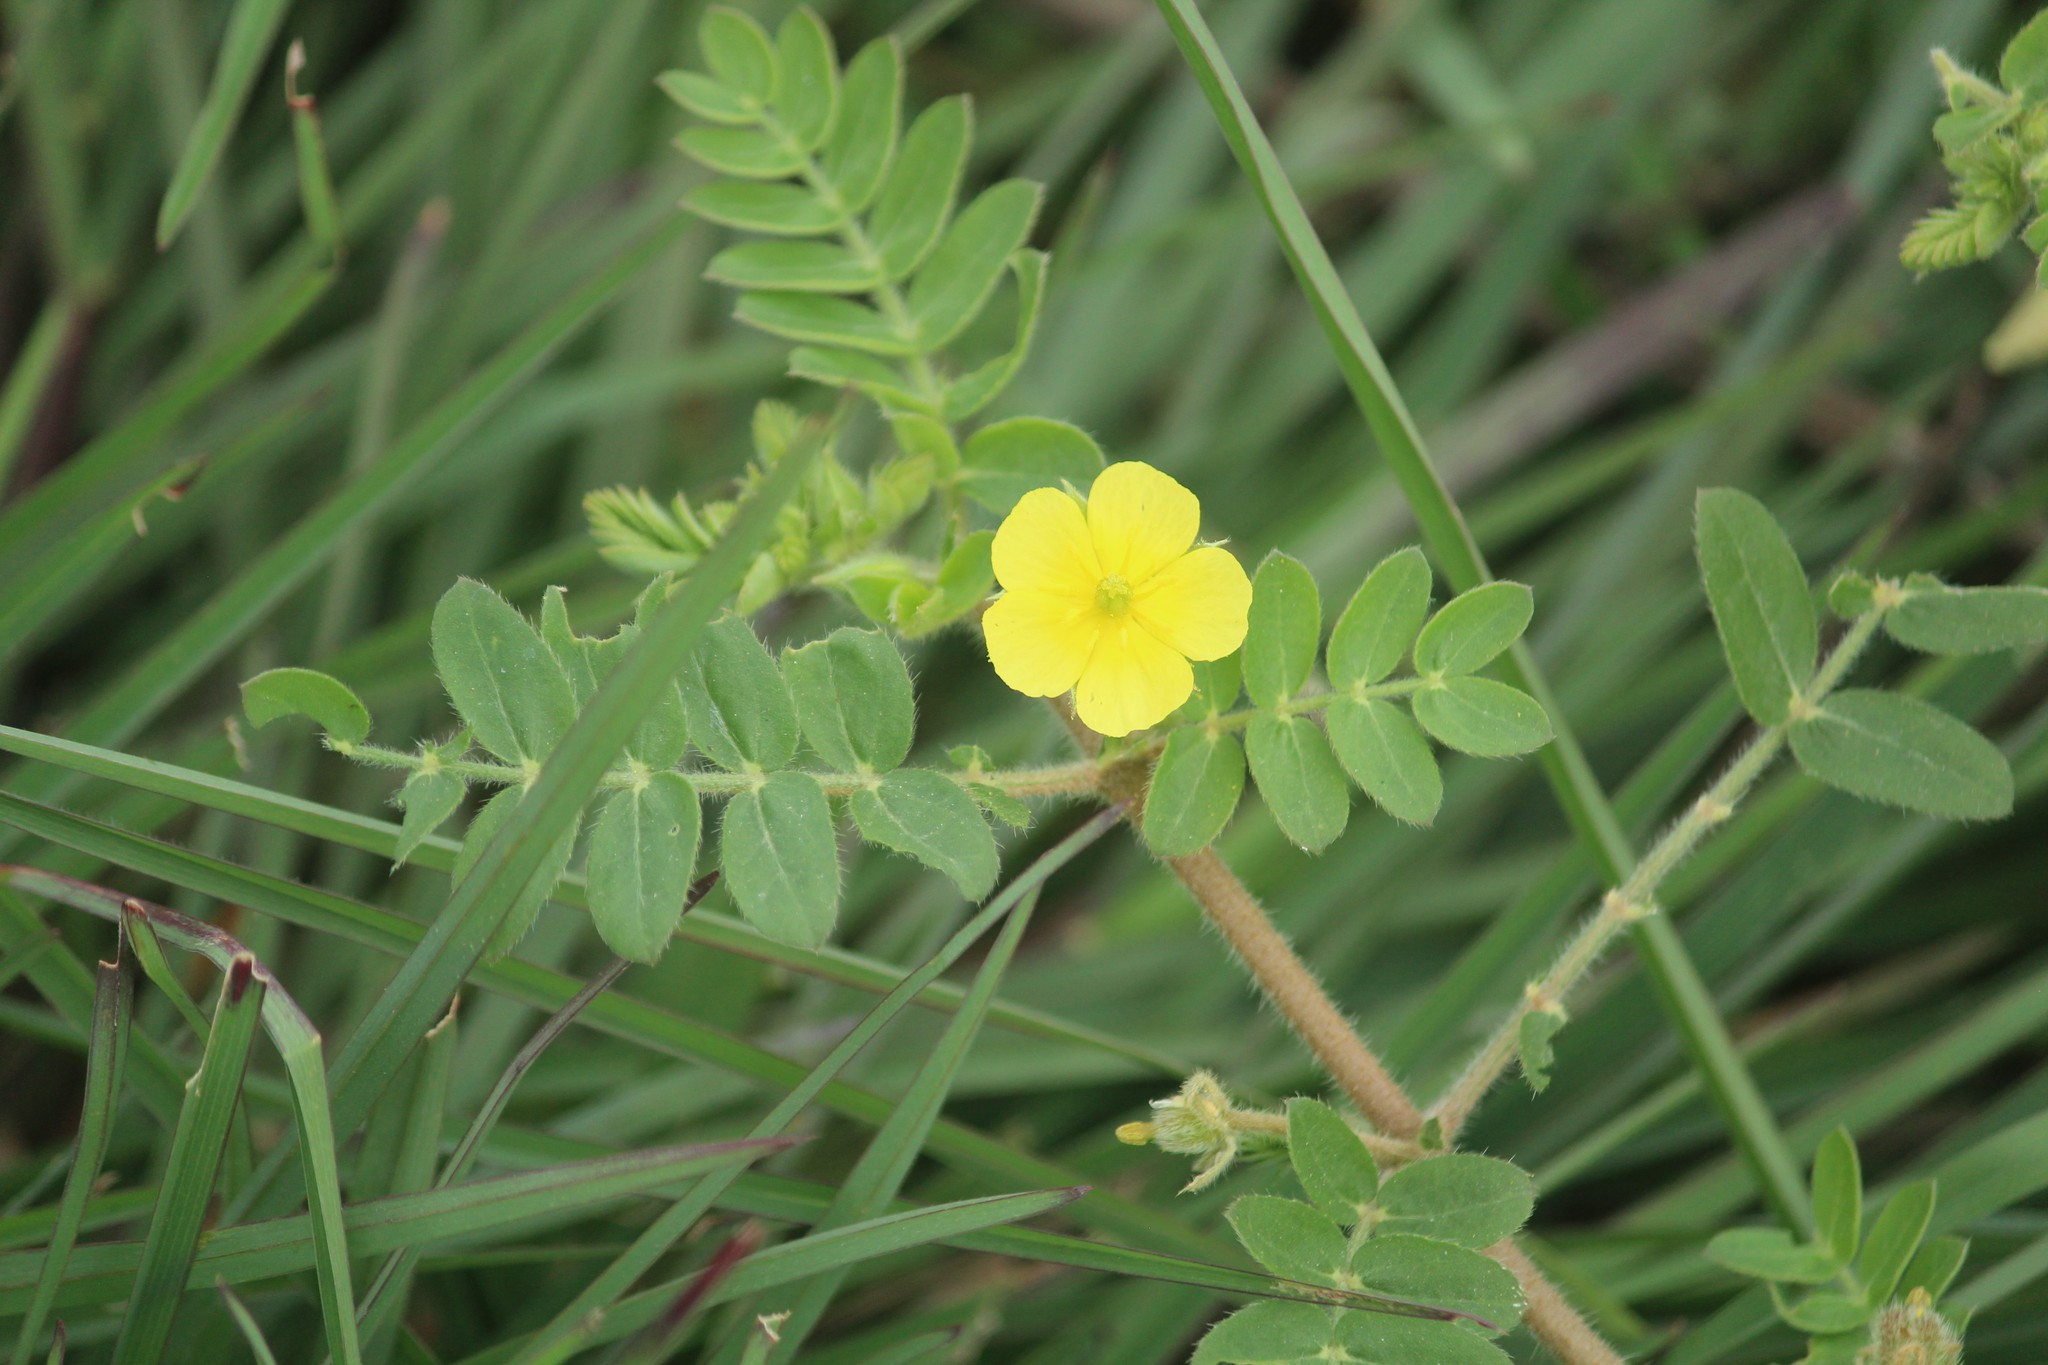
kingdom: Plantae
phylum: Tracheophyta
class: Magnoliopsida
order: Zygophyllales
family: Zygophyllaceae
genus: Tribulus
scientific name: Tribulus terrestris
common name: Puncturevine
